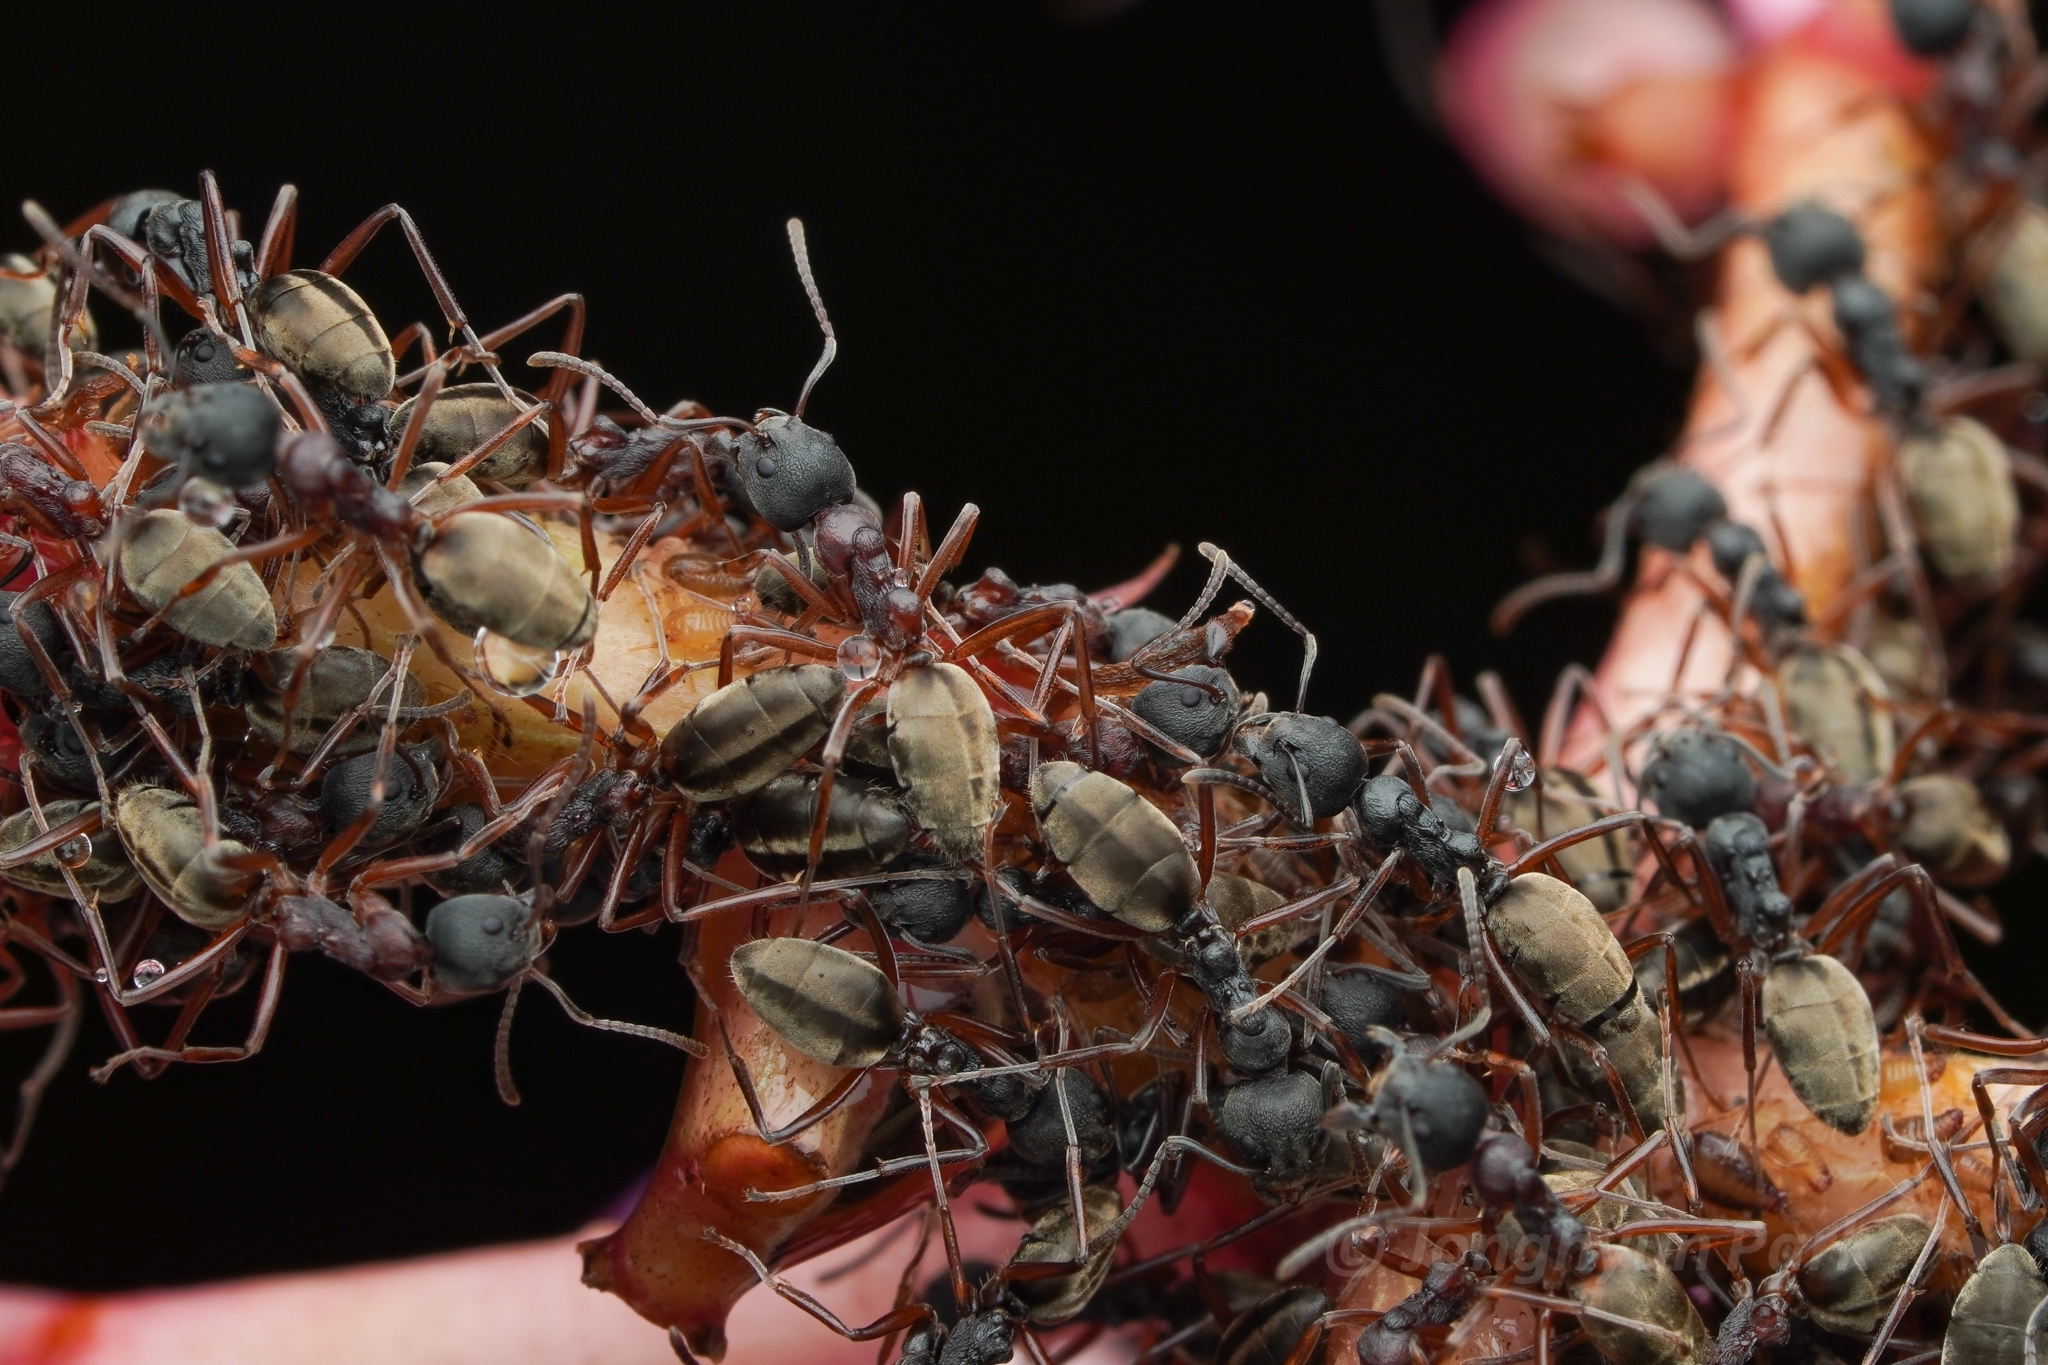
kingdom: Animalia
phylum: Arthropoda
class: Insecta
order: Hymenoptera
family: Formicidae
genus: Dolichoderus
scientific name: Dolichoderus
